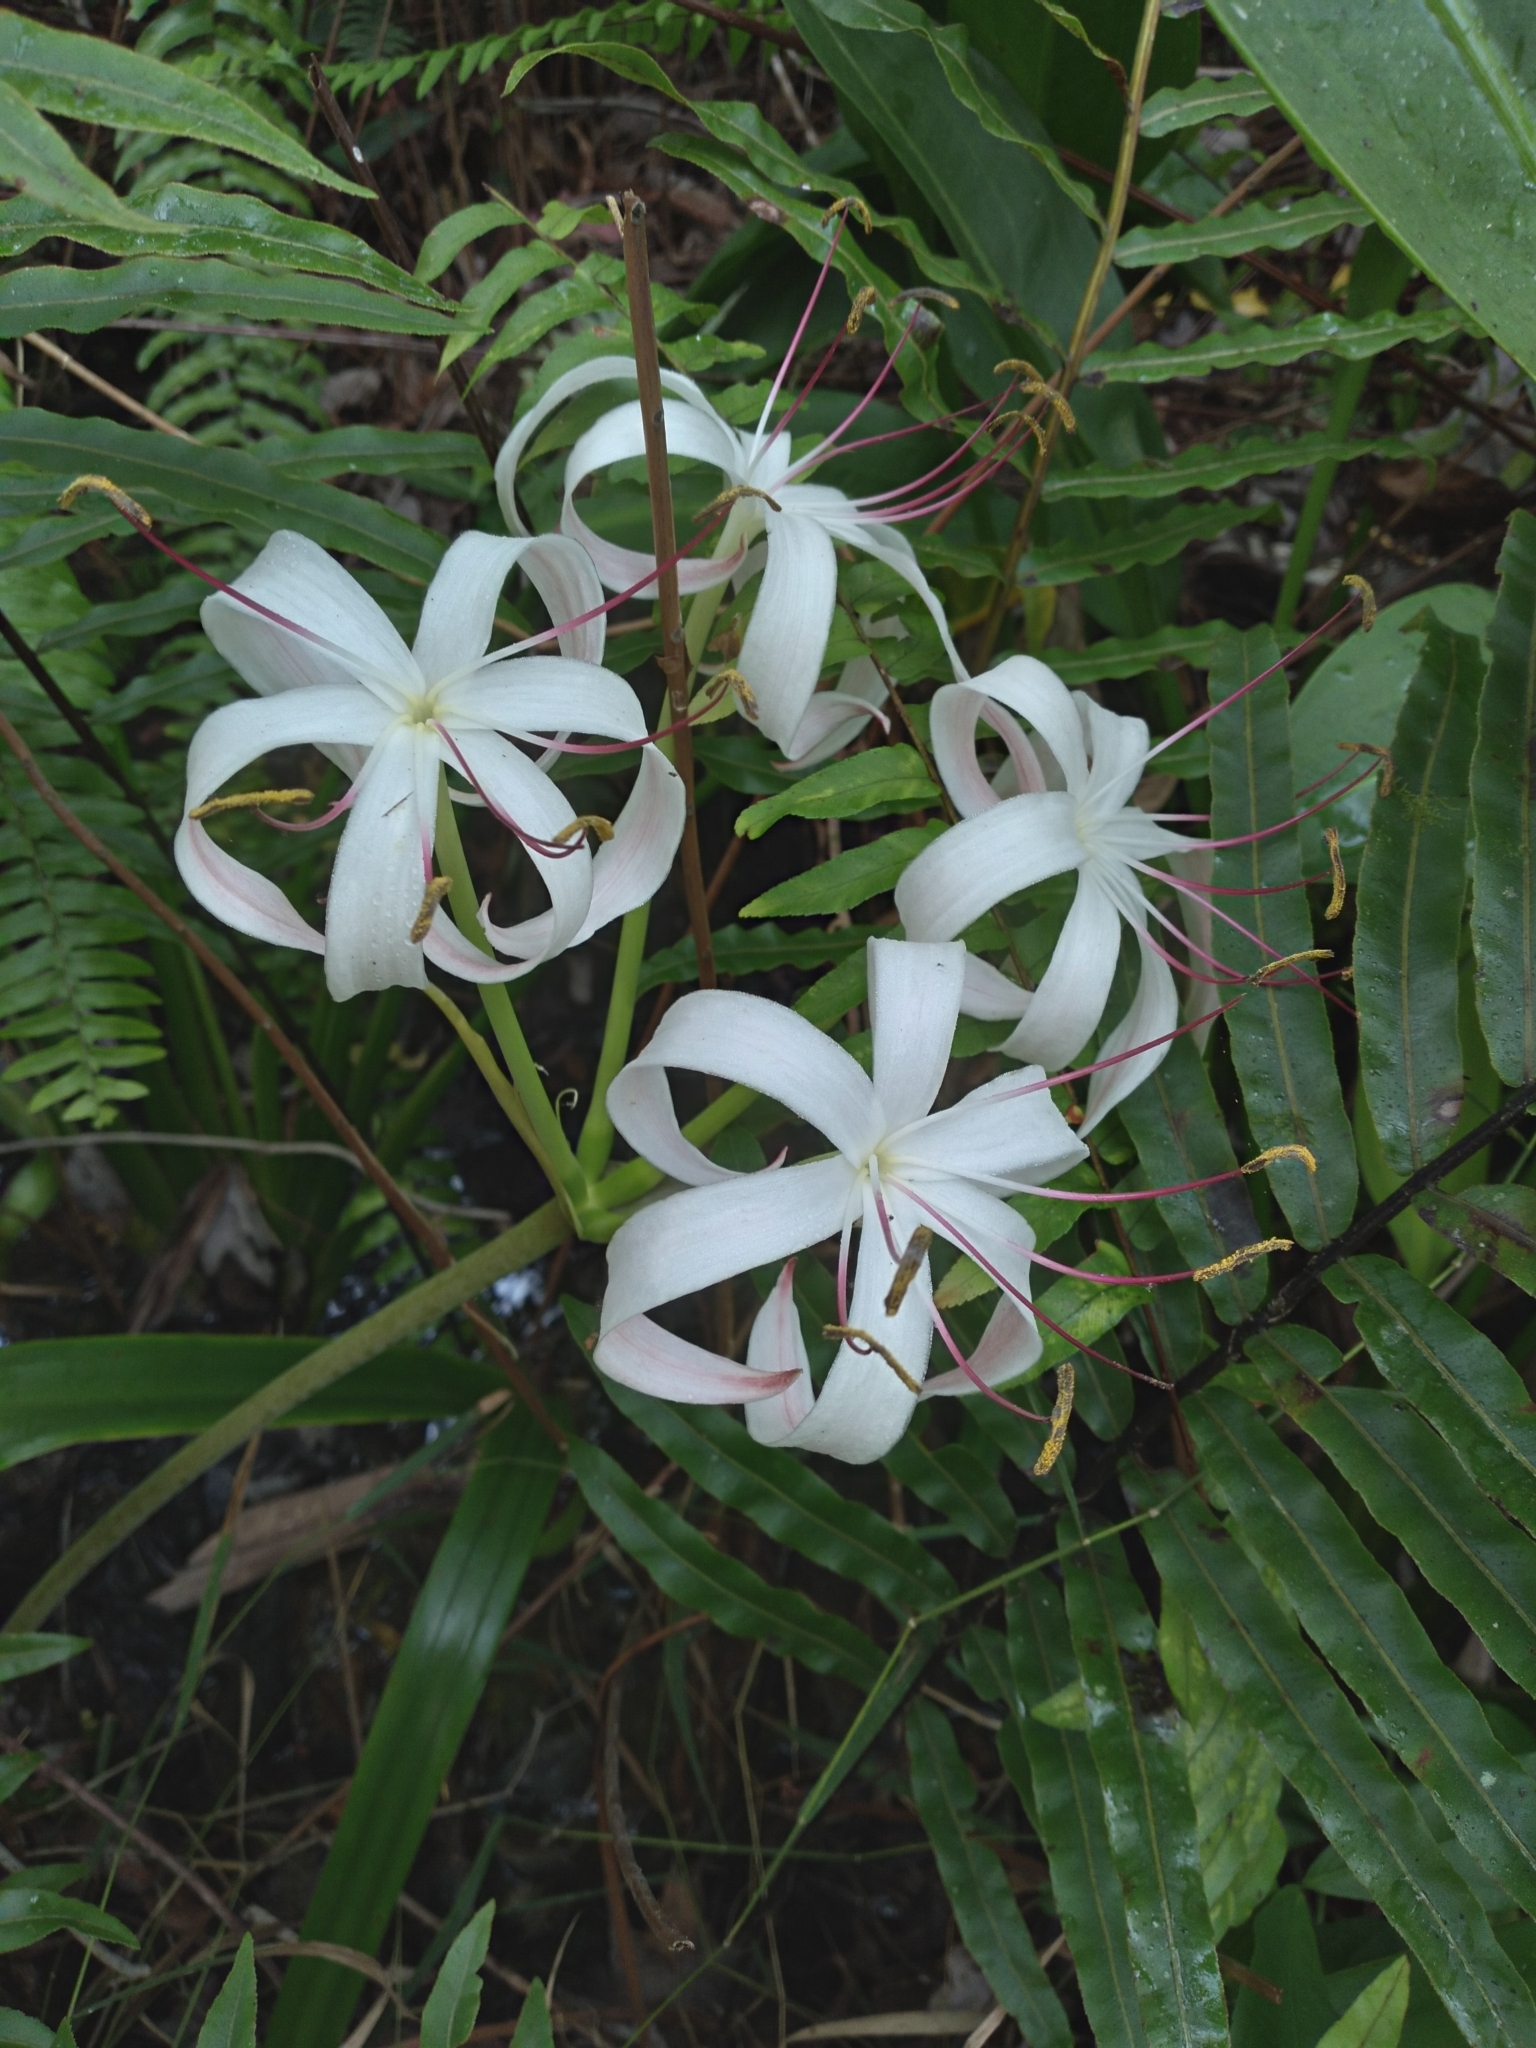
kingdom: Plantae
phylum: Tracheophyta
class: Liliopsida
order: Asparagales
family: Amaryllidaceae
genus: Crinum
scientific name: Crinum americanum
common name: Florida swamp-lily
